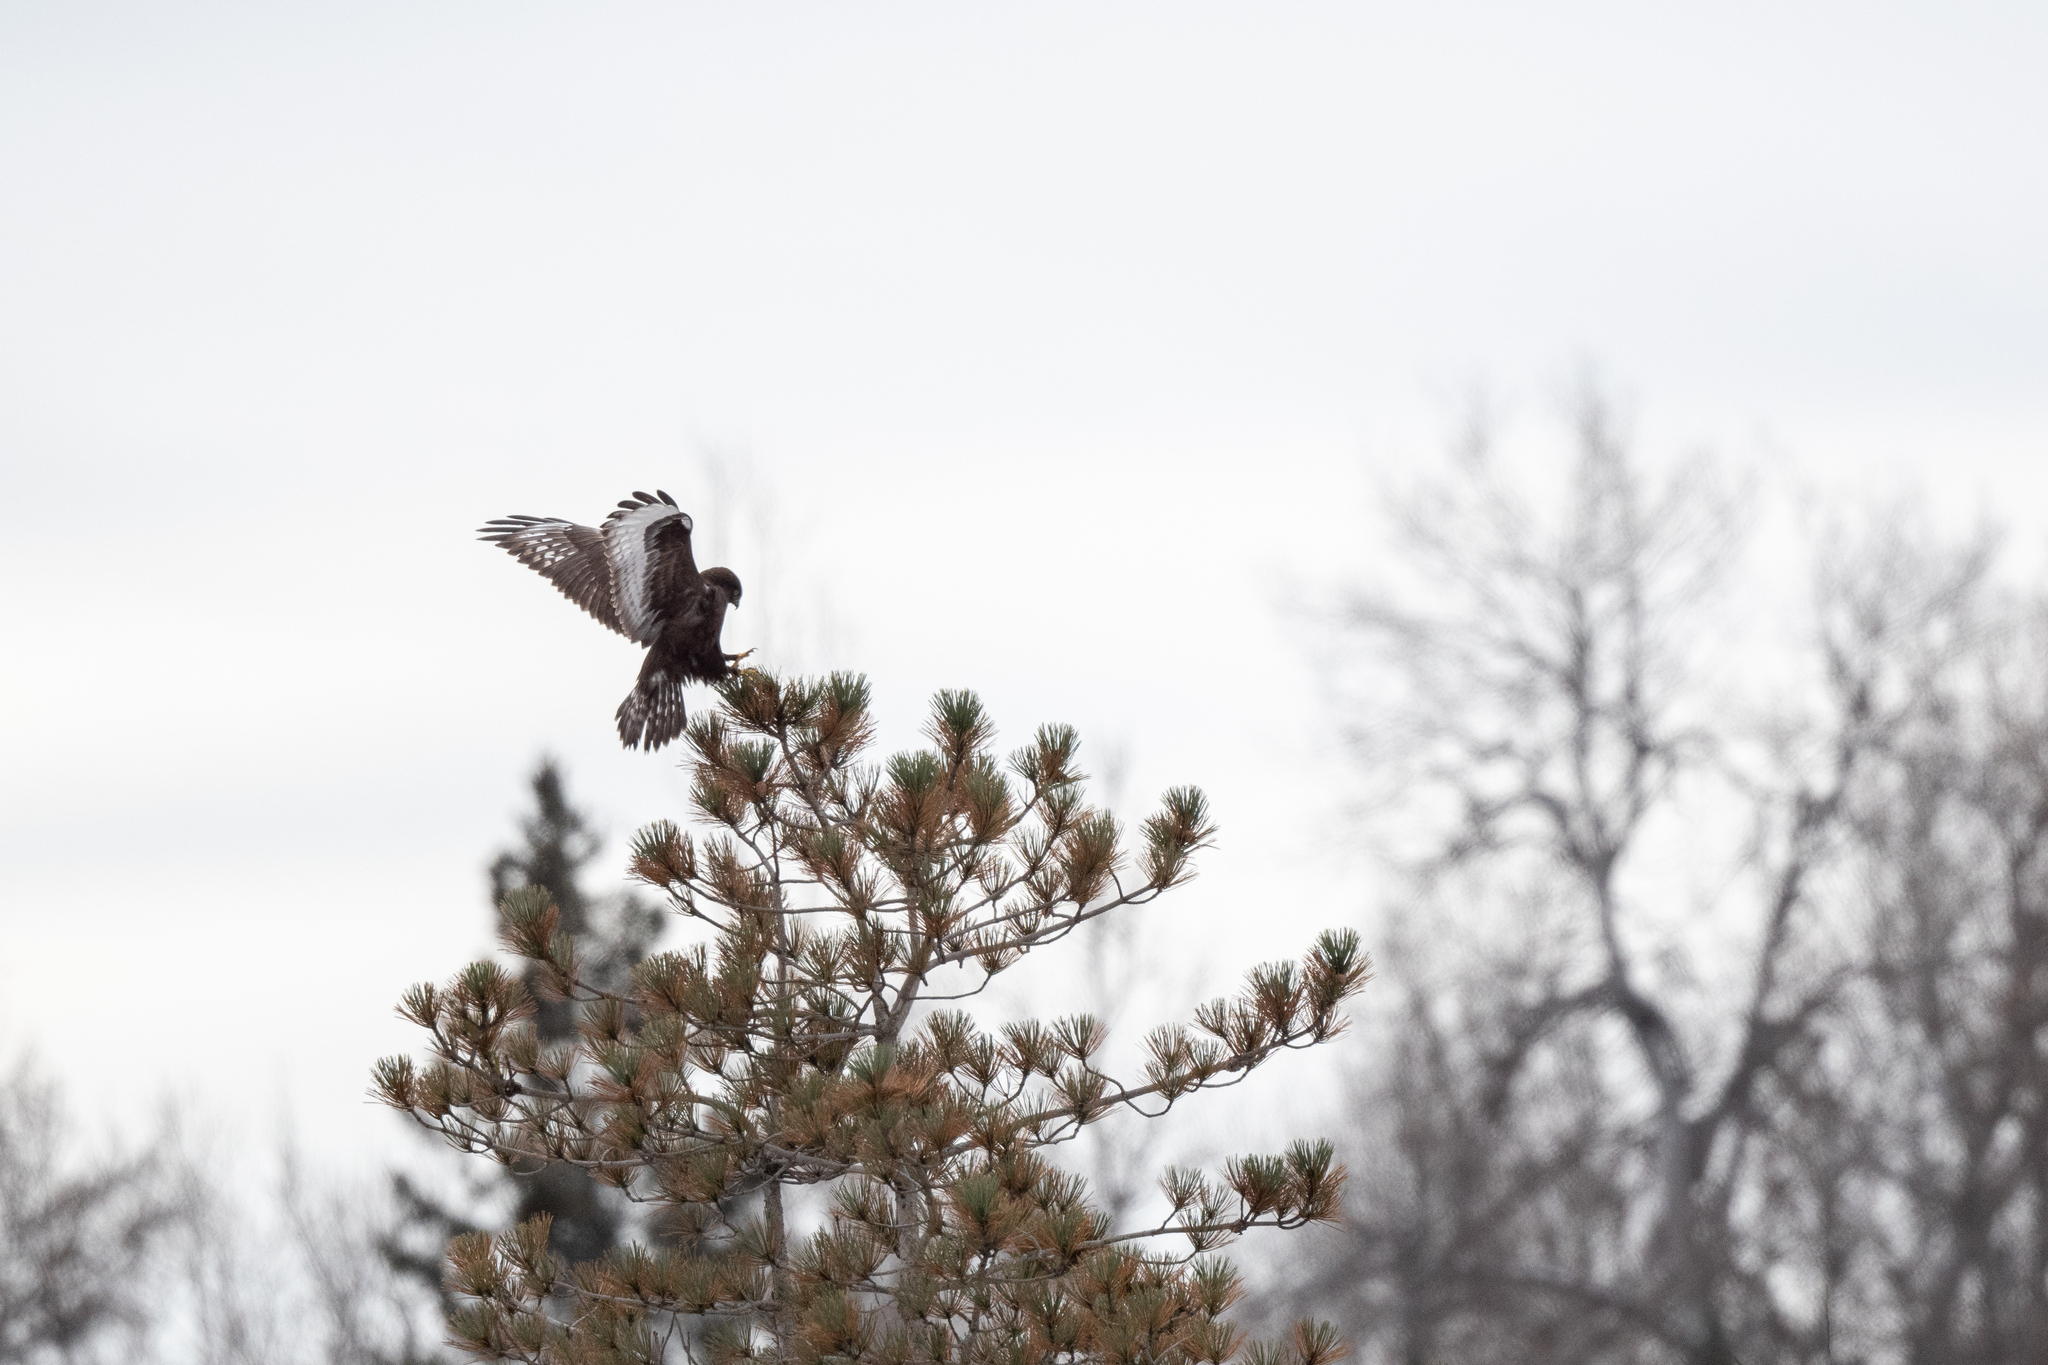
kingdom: Animalia
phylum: Chordata
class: Aves
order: Accipitriformes
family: Accipitridae
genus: Buteo
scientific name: Buteo lagopus
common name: Rough-legged buzzard
